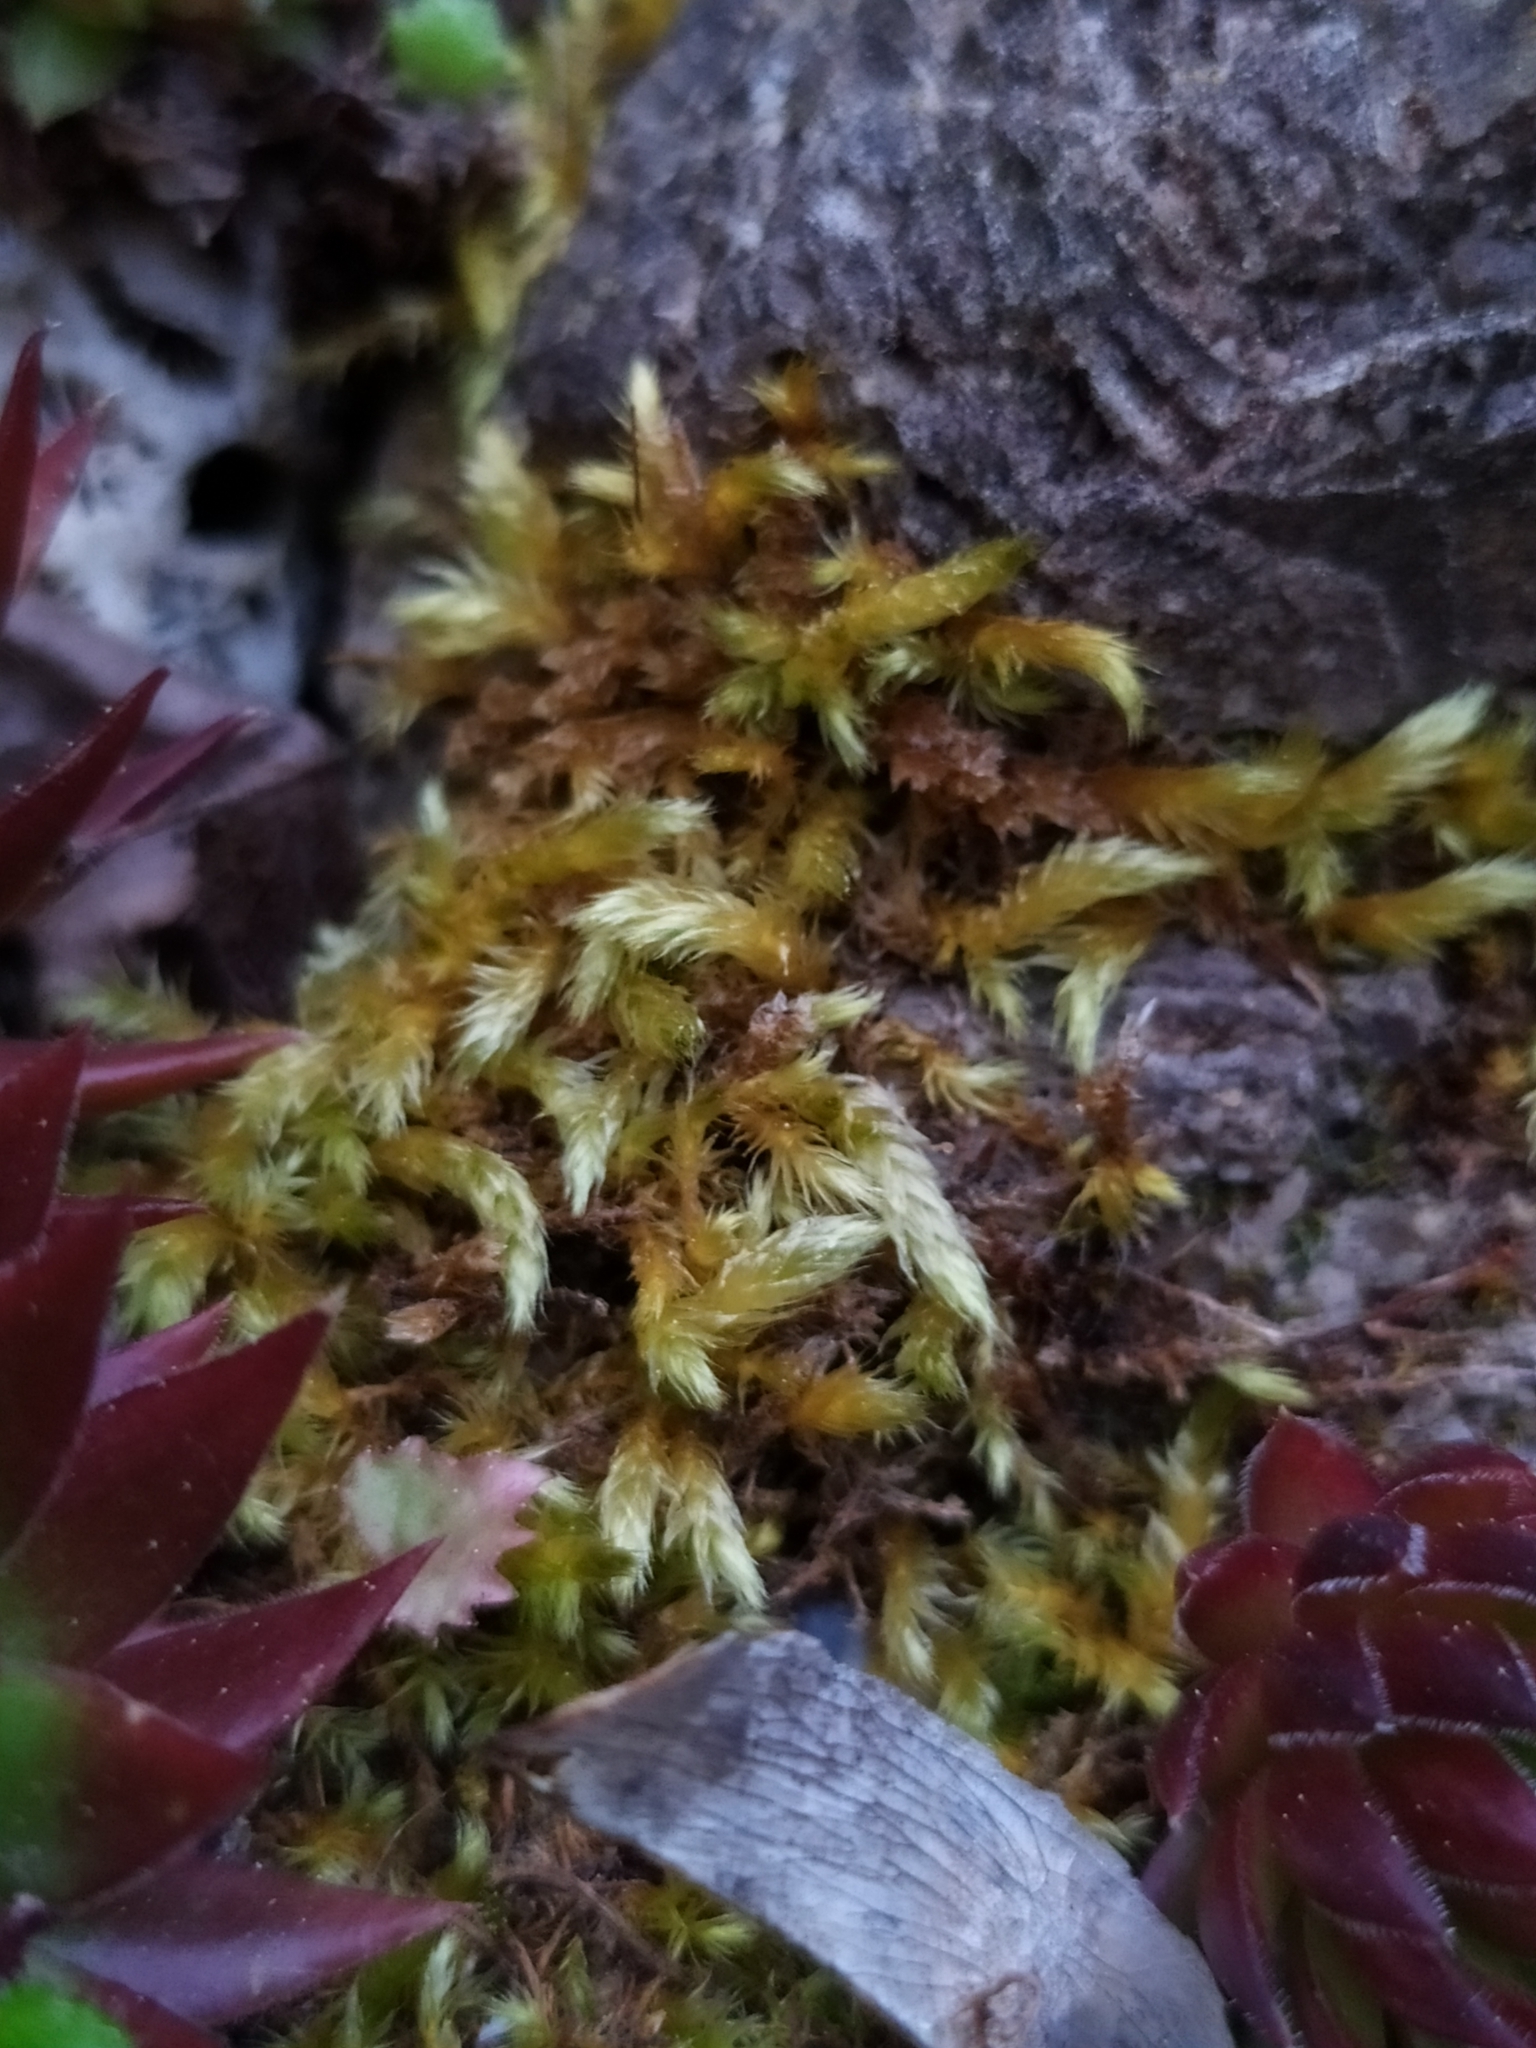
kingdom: Plantae
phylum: Bryophyta
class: Bryopsida
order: Hypnales
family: Brachytheciaceae
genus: Homalothecium
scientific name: Homalothecium lutescens
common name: Yellow feather-moss
